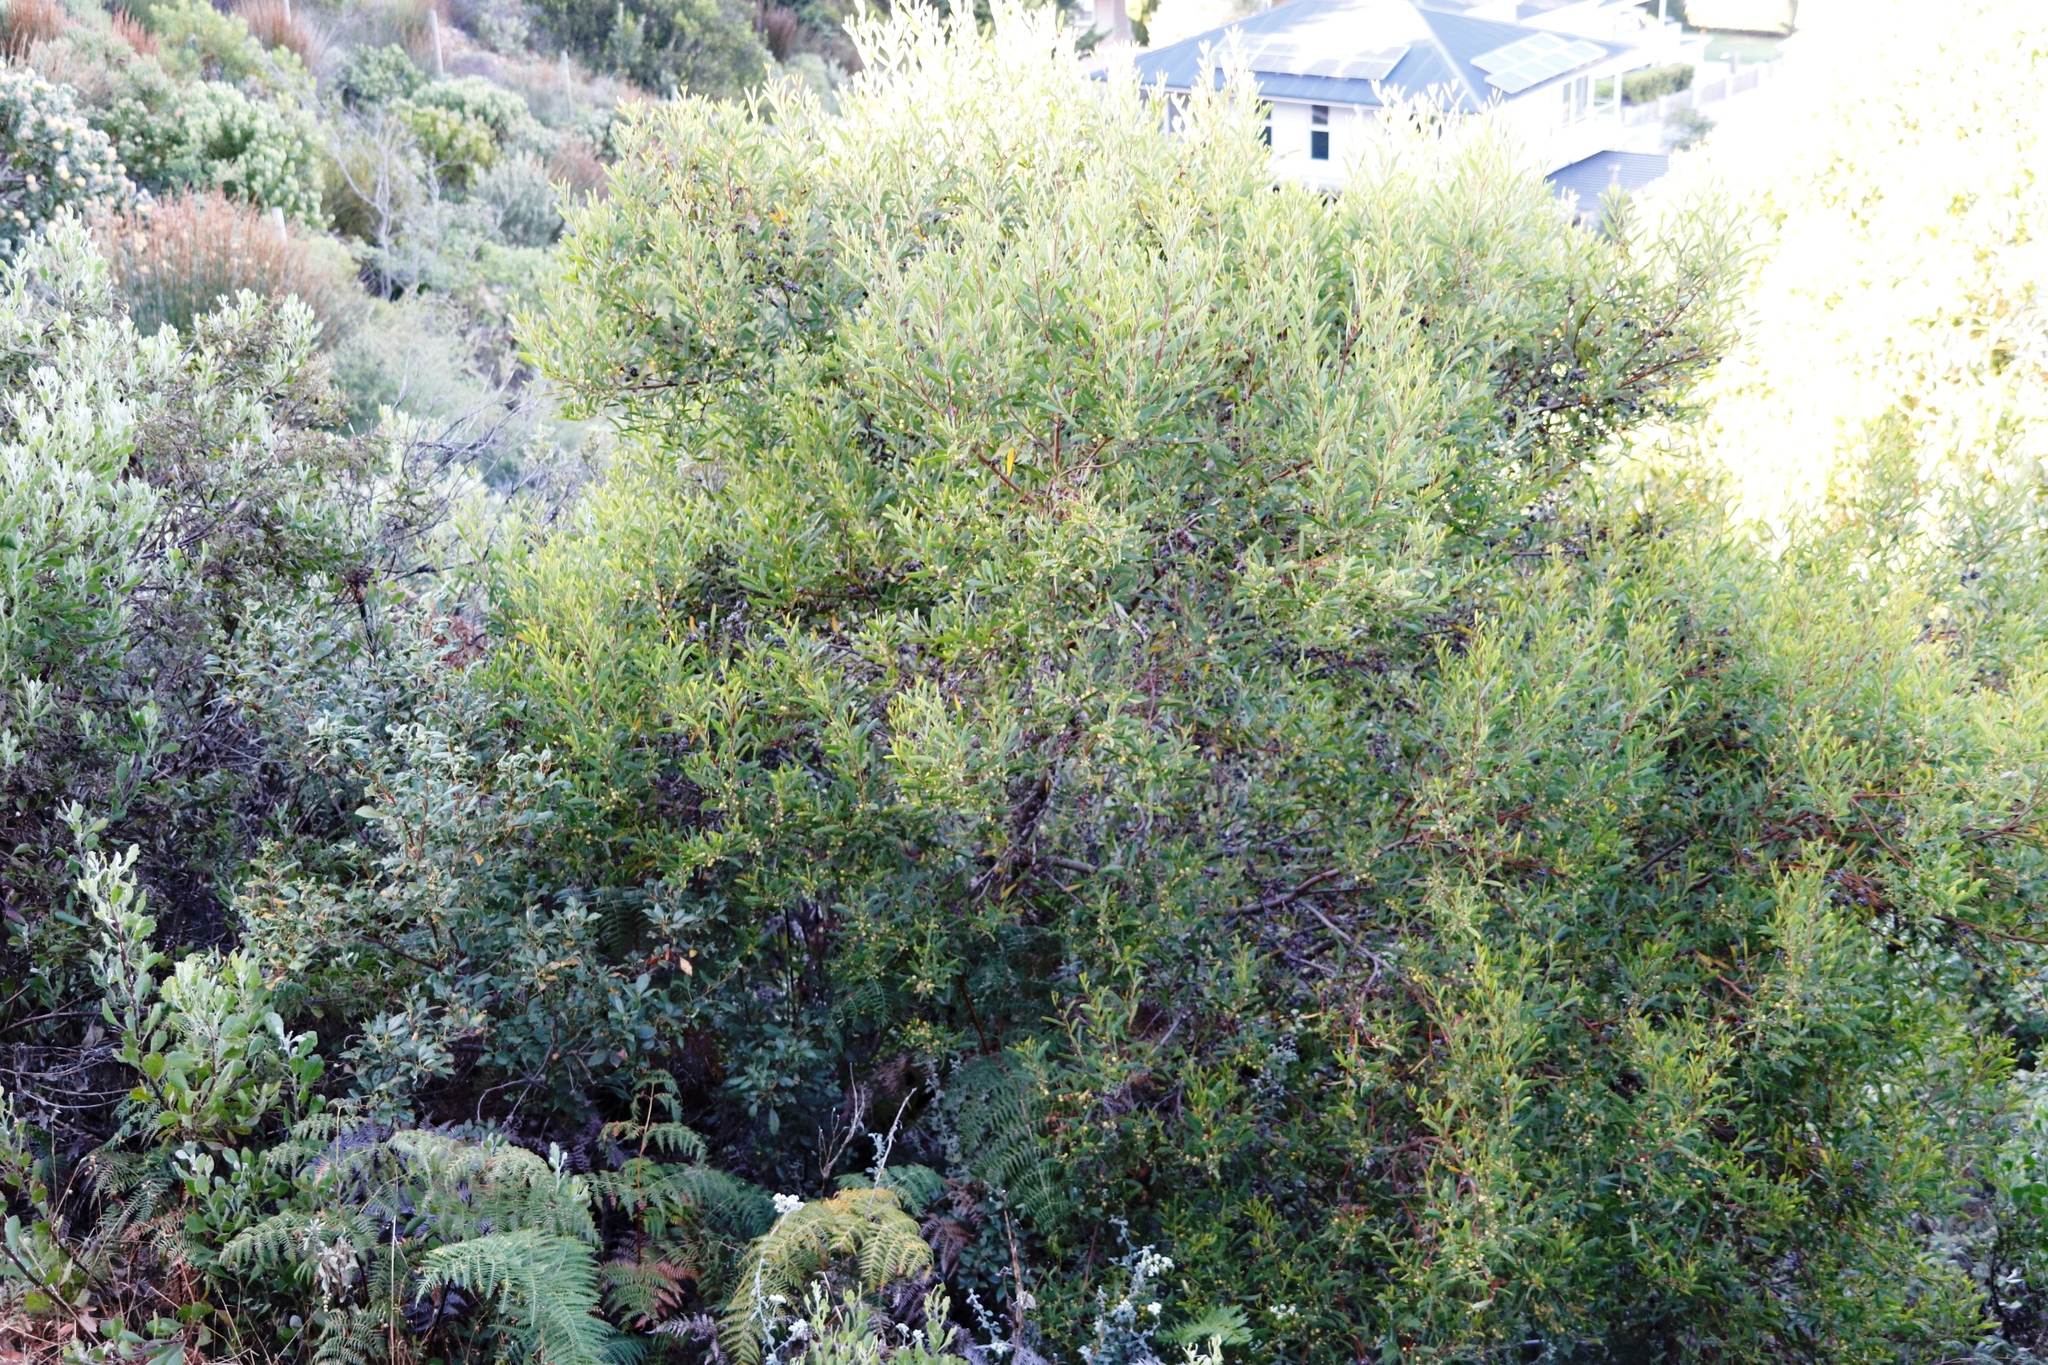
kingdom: Plantae
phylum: Tracheophyta
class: Magnoliopsida
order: Fabales
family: Fabaceae
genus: Acacia
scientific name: Acacia cyclops
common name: Coastal wattle
